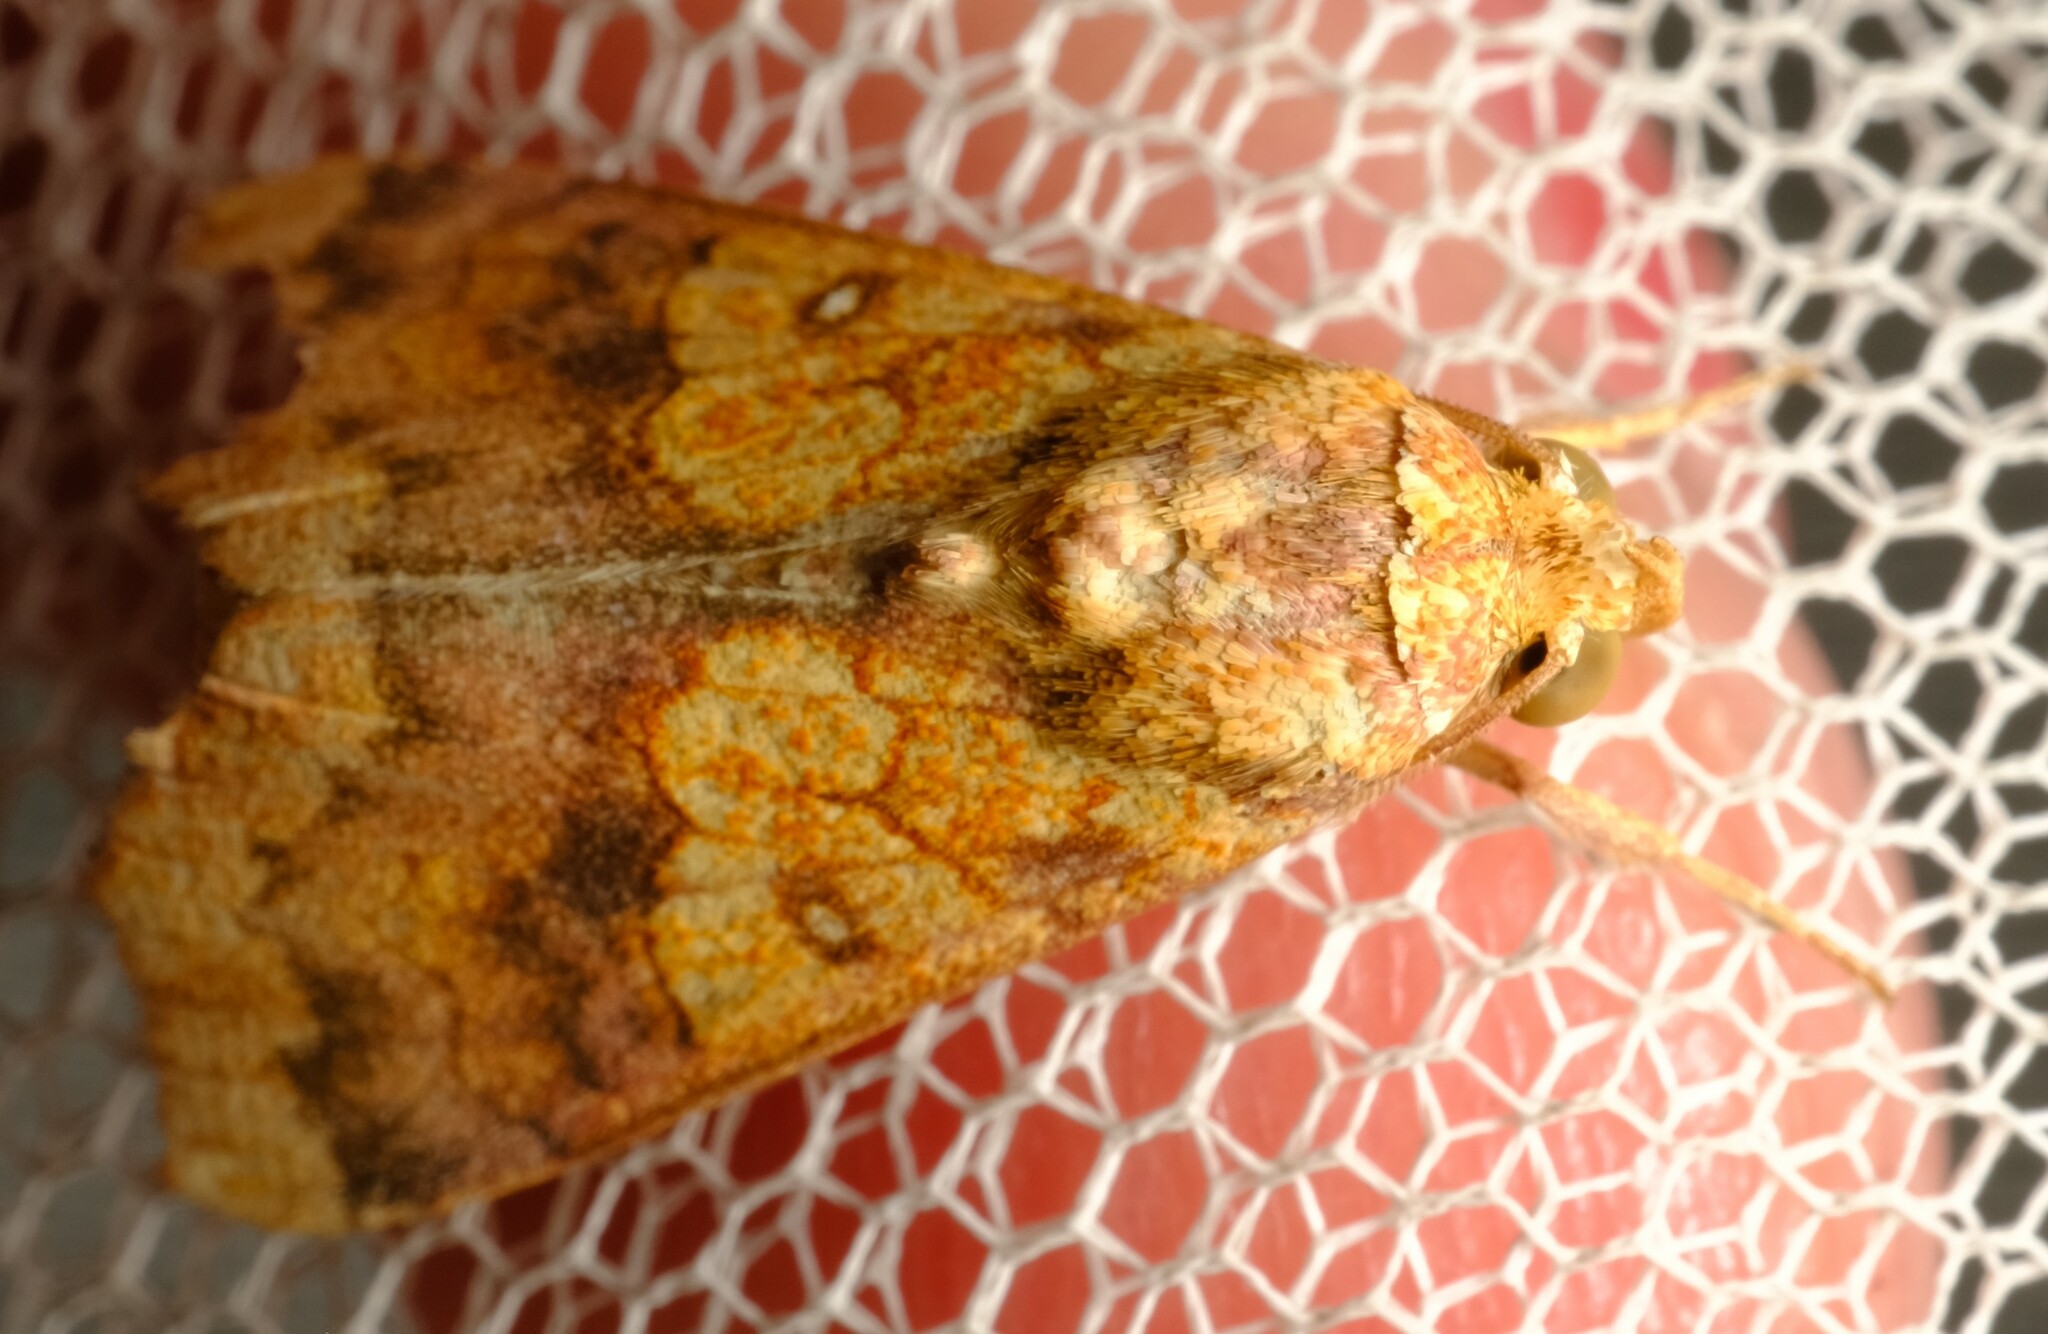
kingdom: Animalia
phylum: Arthropoda
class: Insecta
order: Lepidoptera
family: Erebidae
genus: Anomis
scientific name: Anomis flava
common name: Moth
